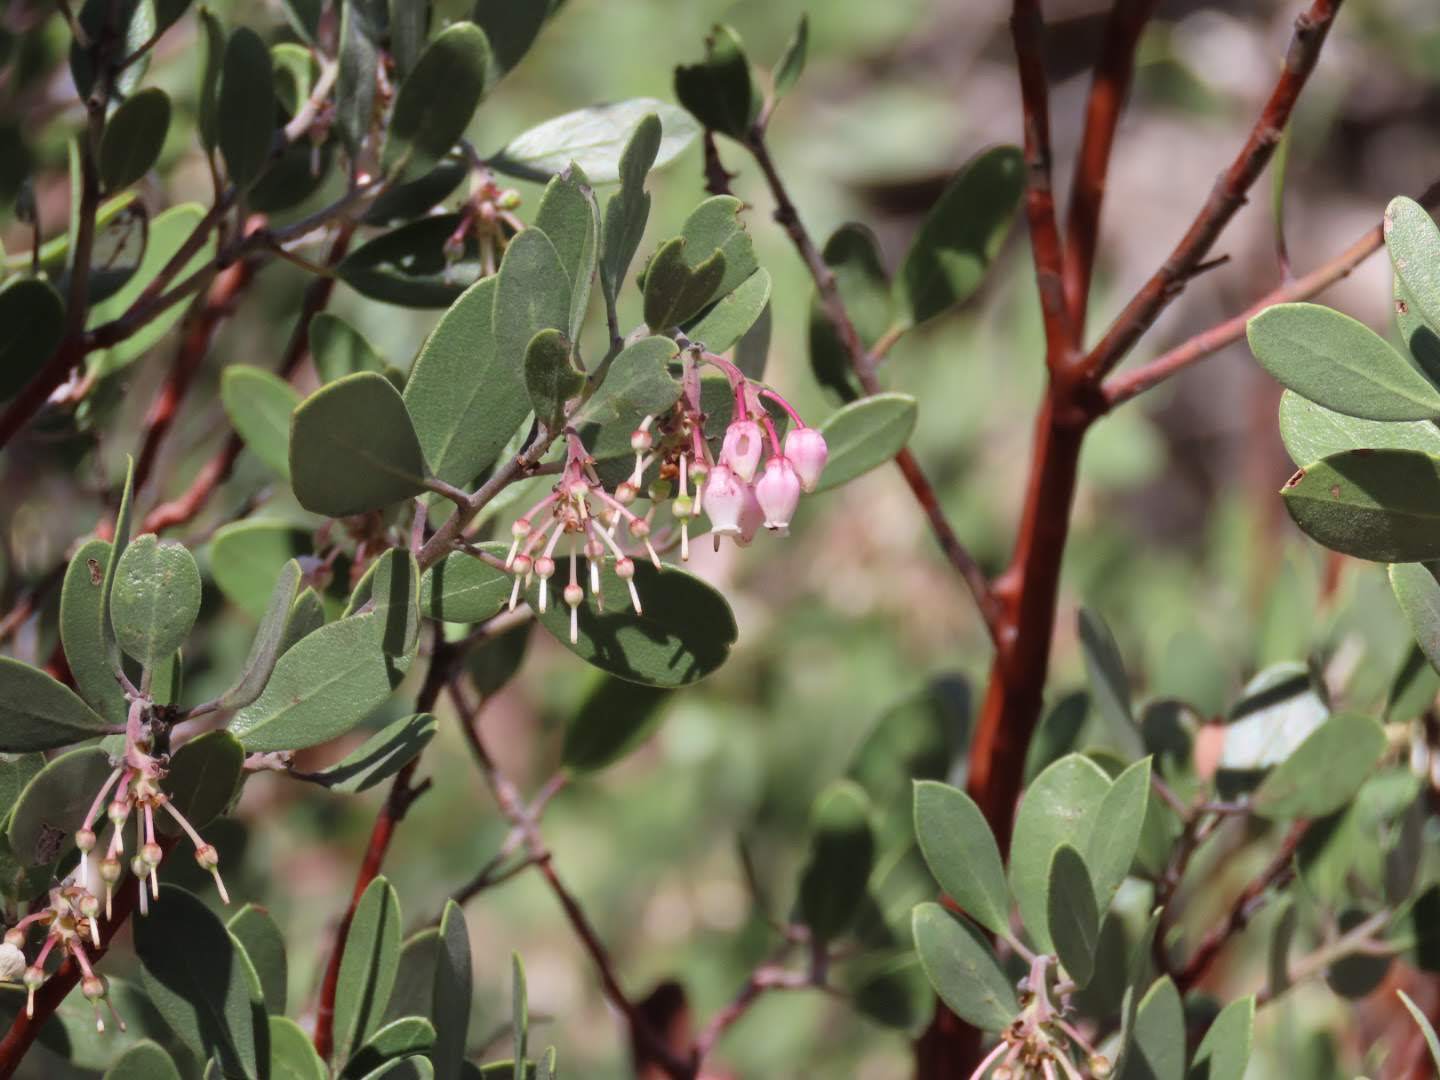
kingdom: Plantae
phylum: Tracheophyta
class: Magnoliopsida
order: Ericales
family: Ericaceae
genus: Arctostaphylos
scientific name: Arctostaphylos pungens
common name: Mexican manzanita
